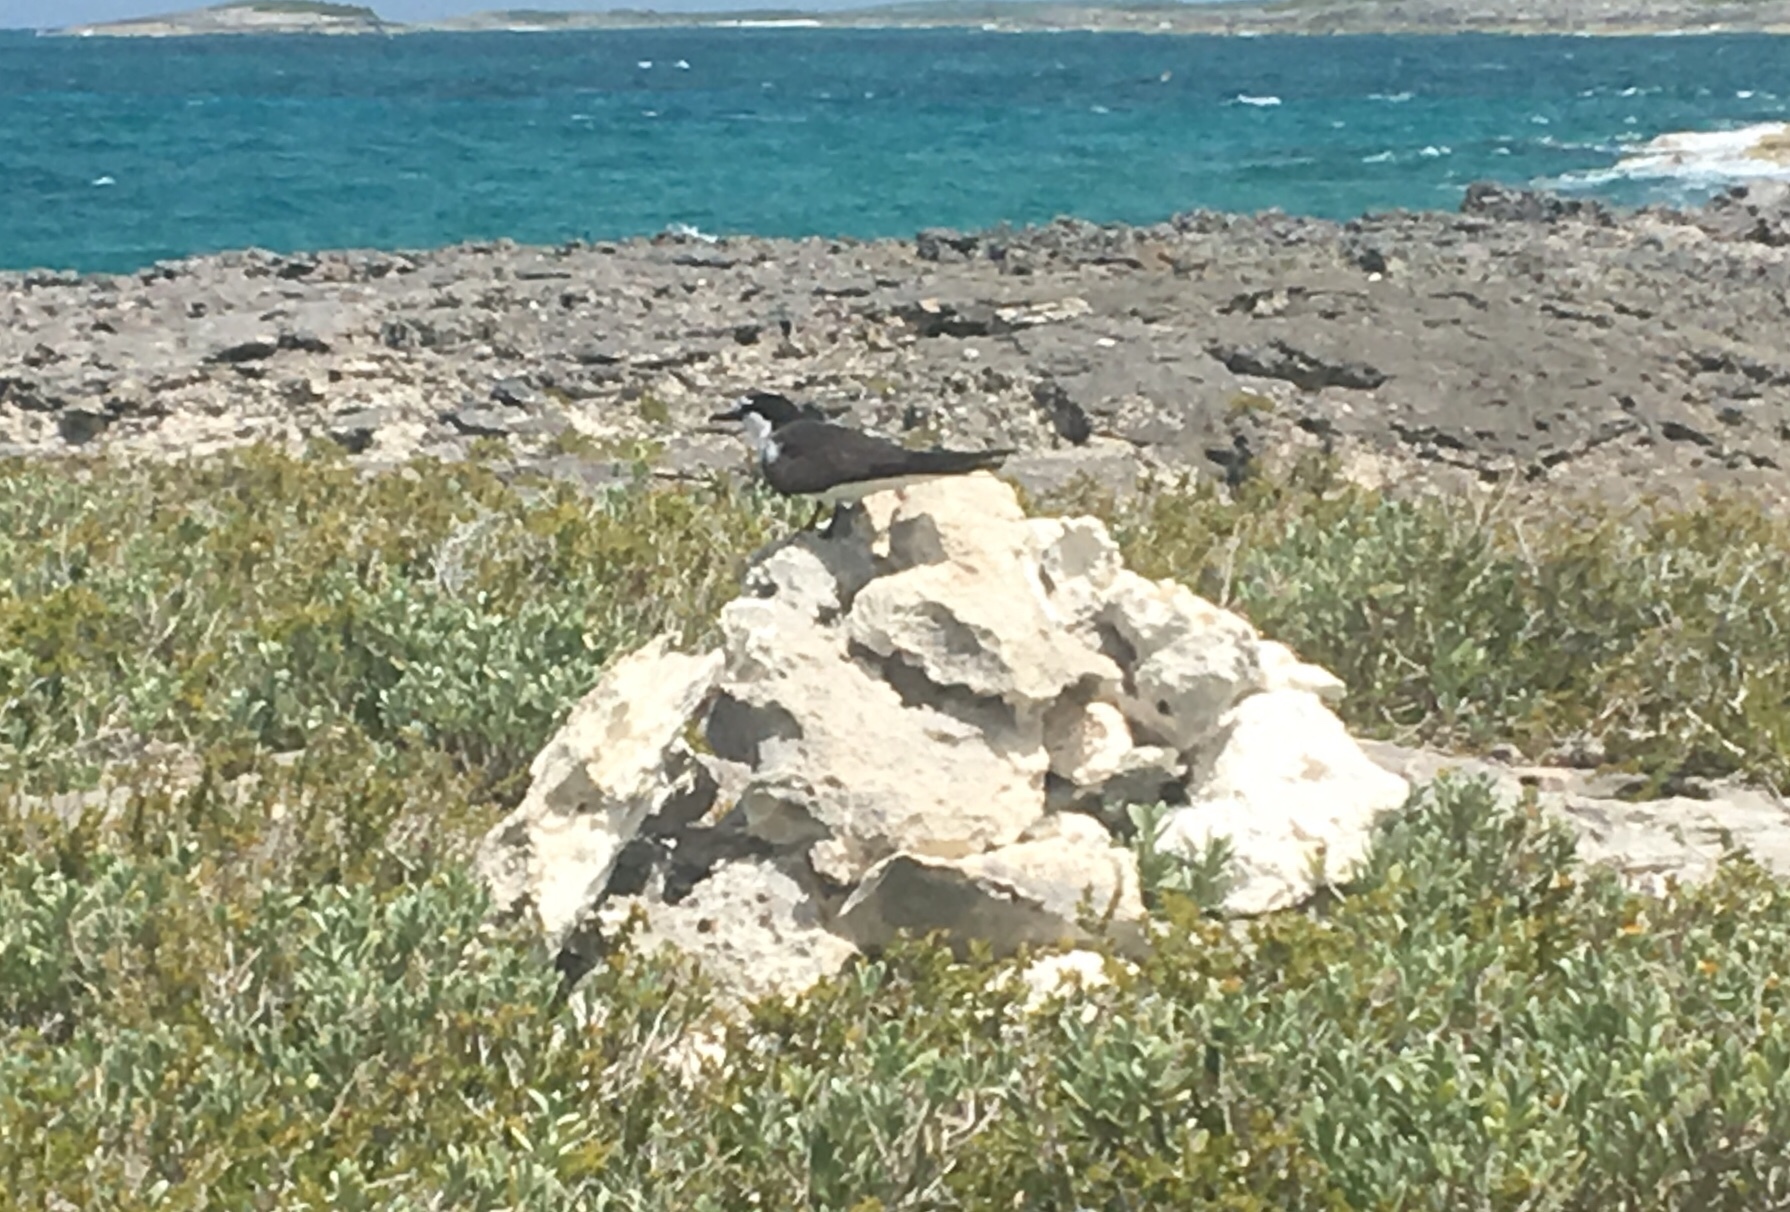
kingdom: Animalia
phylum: Chordata
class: Aves
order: Charadriiformes
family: Laridae
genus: Onychoprion
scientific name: Onychoprion anaethetus
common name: Bridled tern
